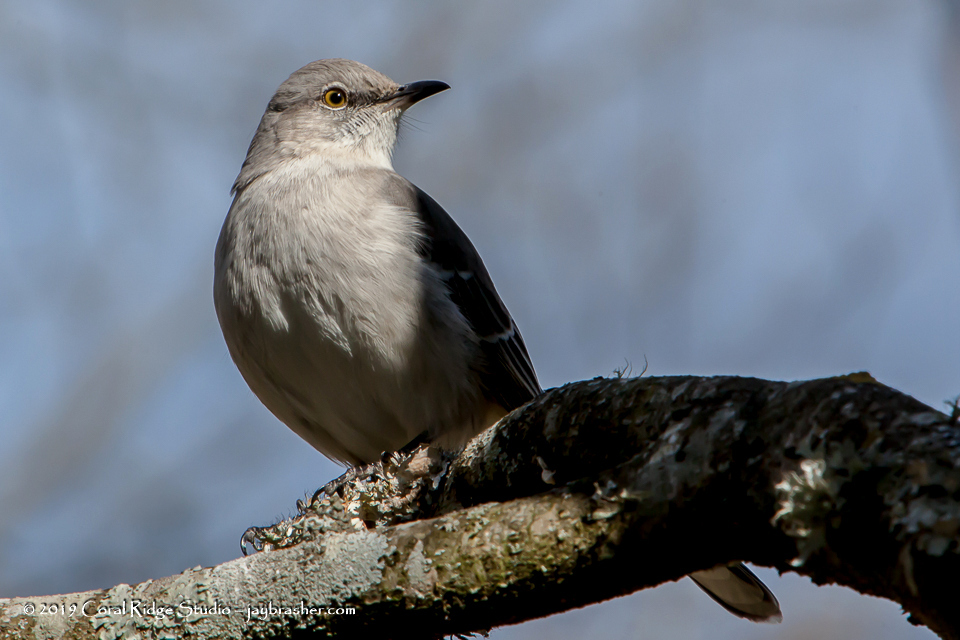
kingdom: Animalia
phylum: Chordata
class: Aves
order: Passeriformes
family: Mimidae
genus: Mimus
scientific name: Mimus polyglottos
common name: Northern mockingbird
